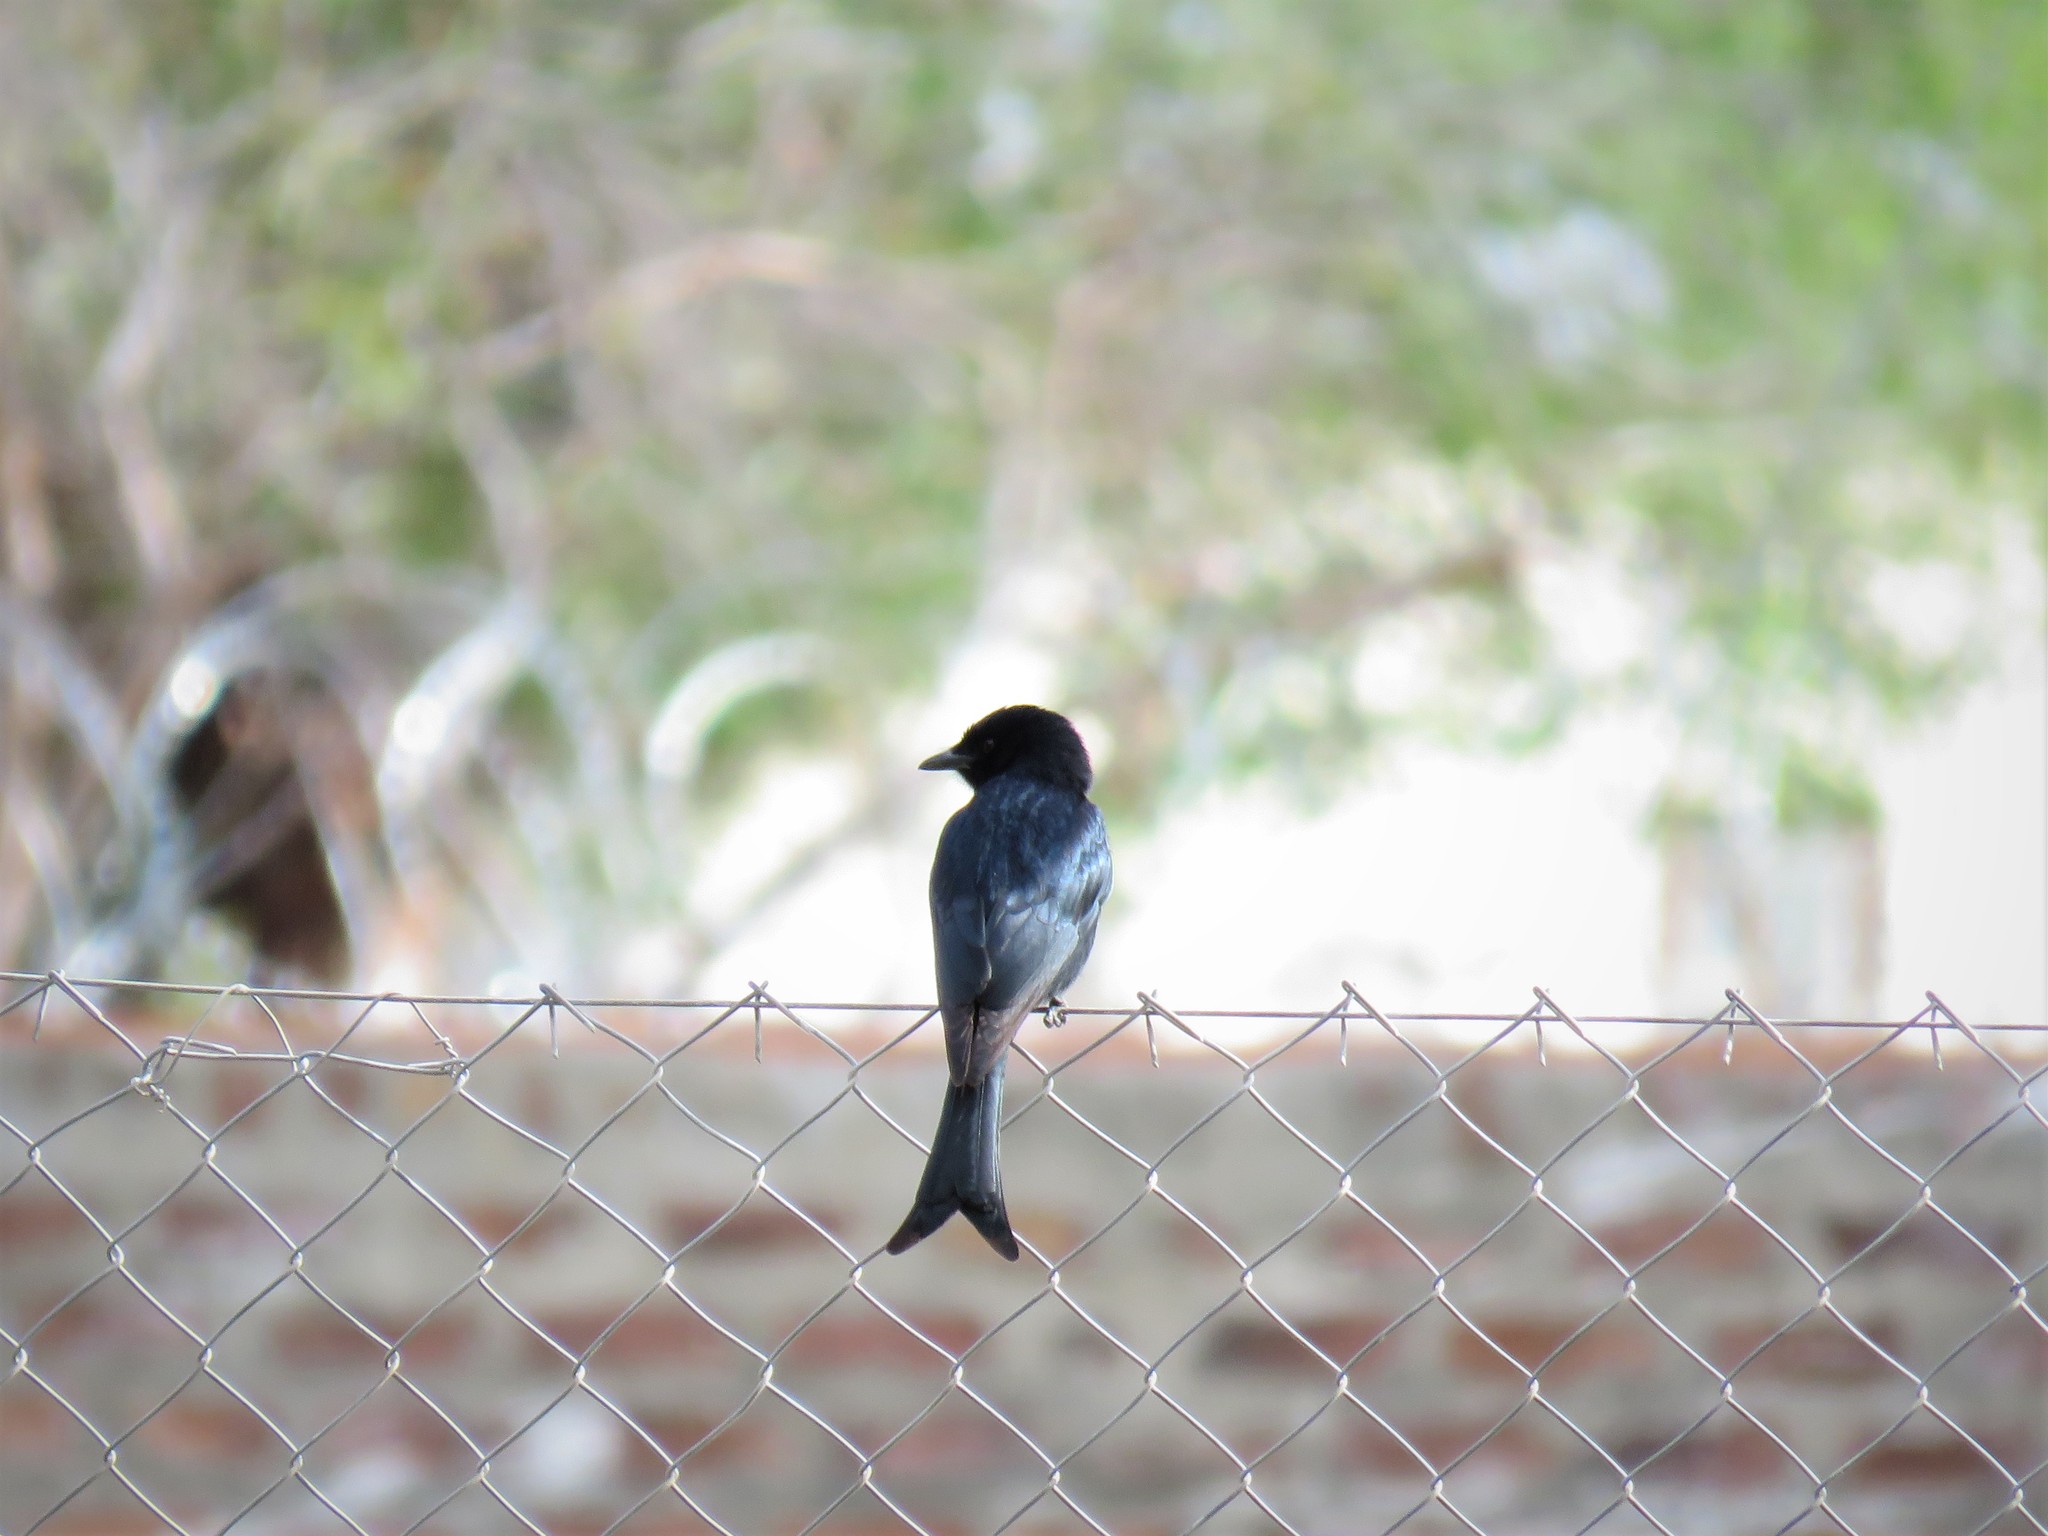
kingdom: Animalia
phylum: Chordata
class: Aves
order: Passeriformes
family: Dicruridae
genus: Dicrurus
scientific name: Dicrurus adsimilis
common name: Fork-tailed drongo
